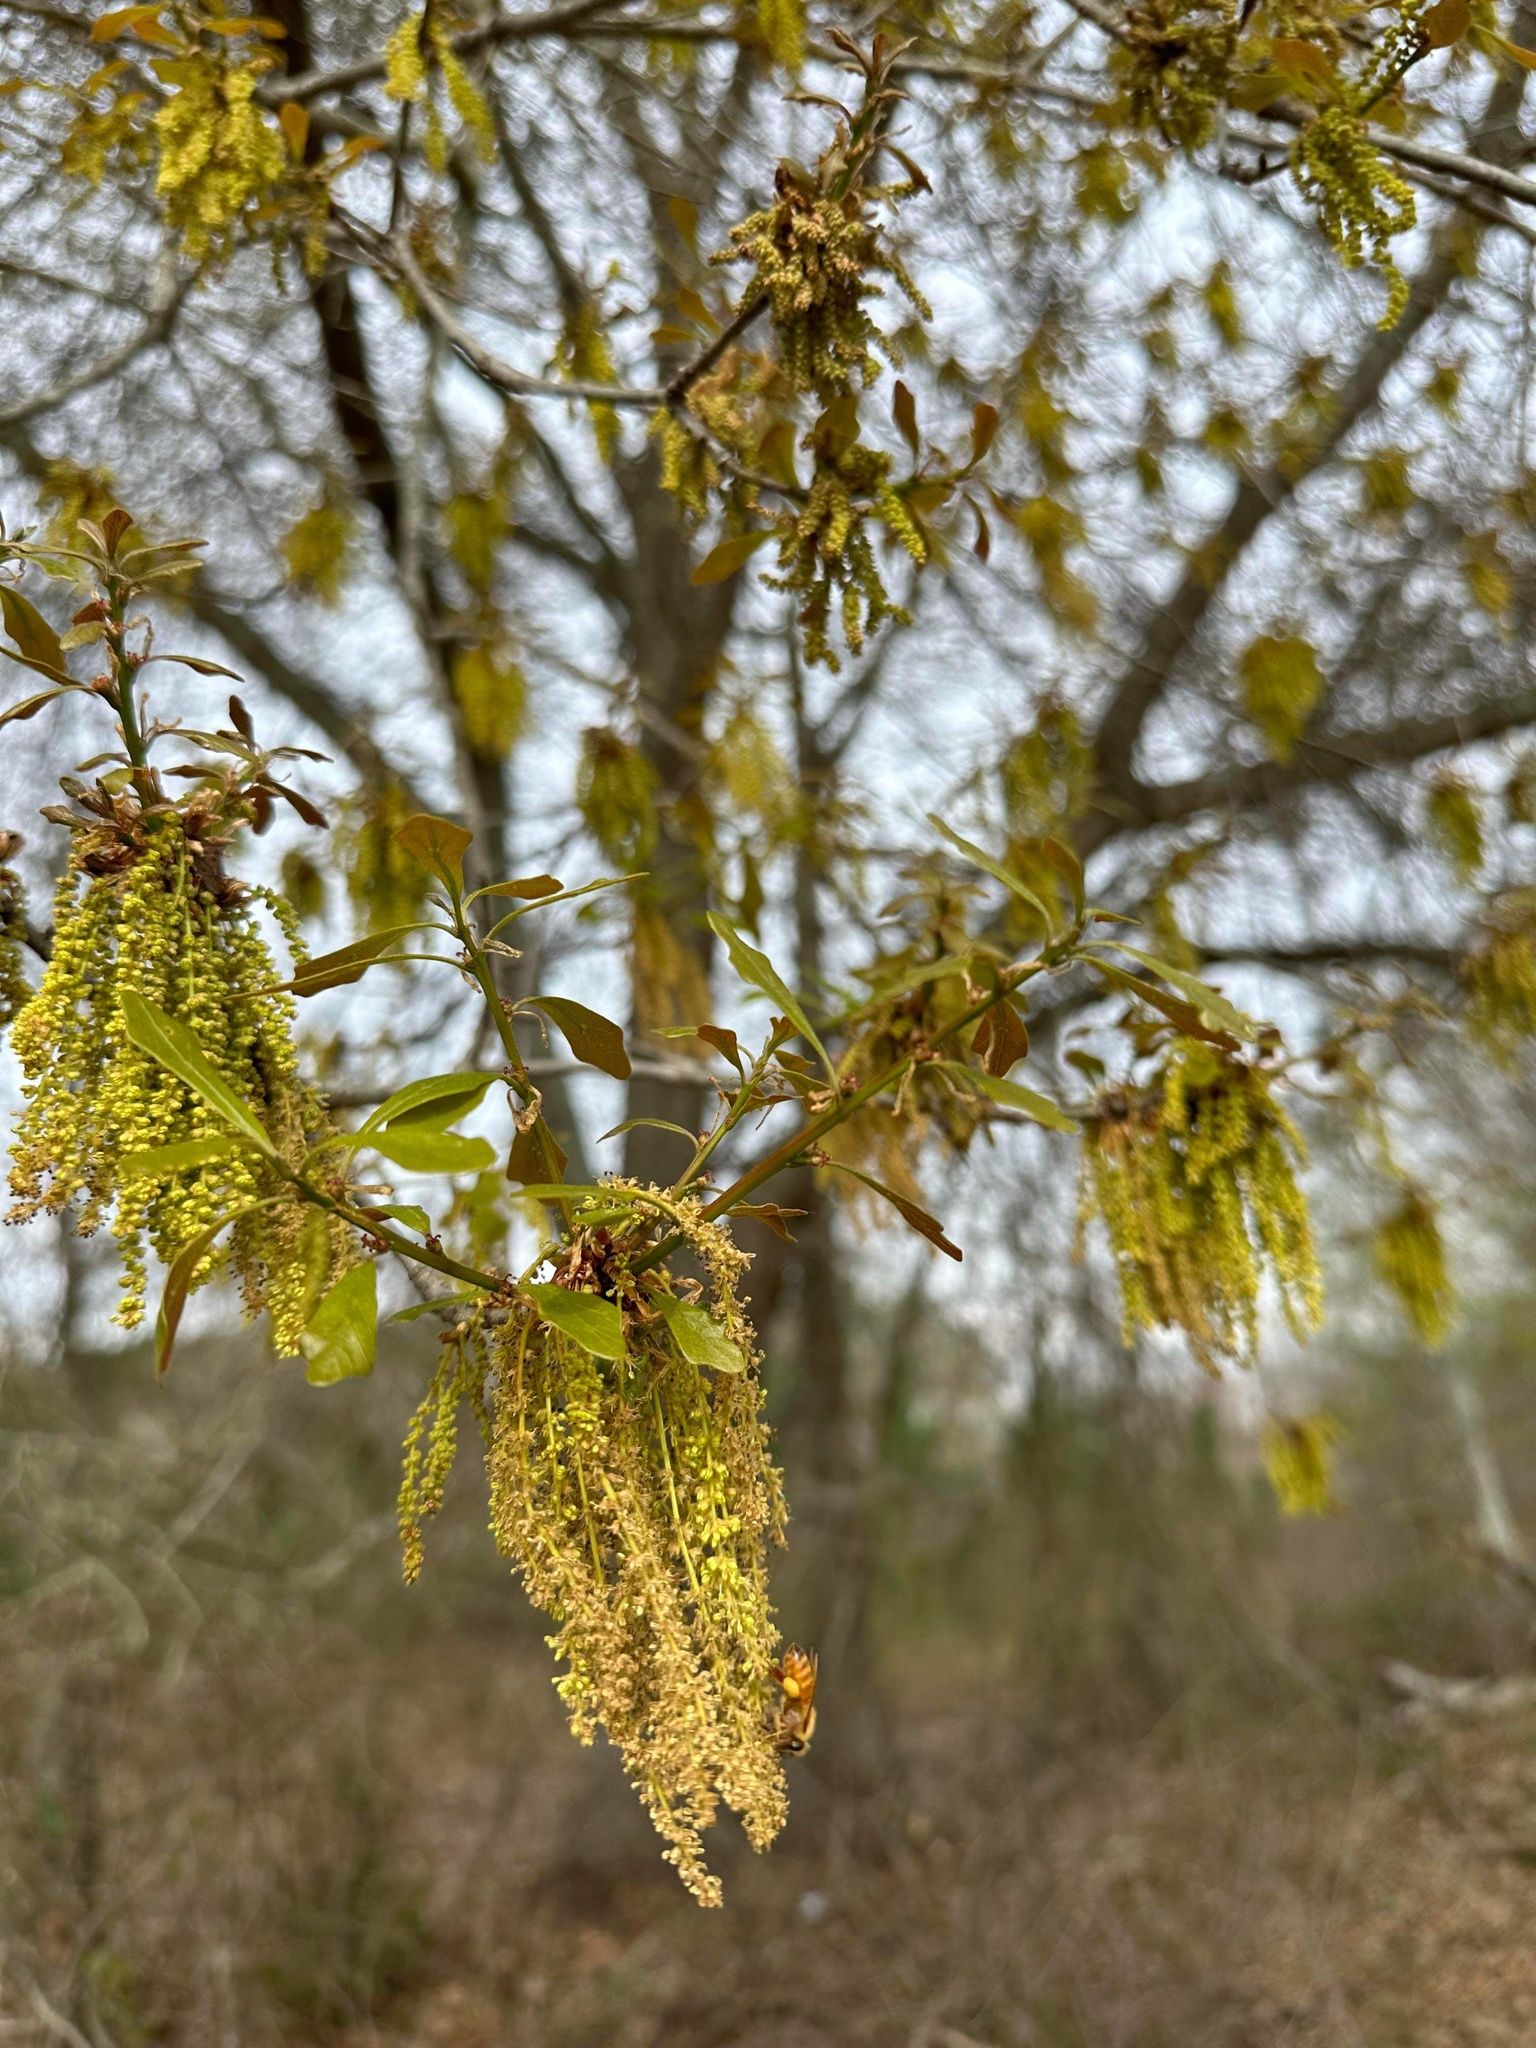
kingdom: Plantae
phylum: Tracheophyta
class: Magnoliopsida
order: Fagales
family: Fagaceae
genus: Quercus
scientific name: Quercus nigra
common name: Water oak
